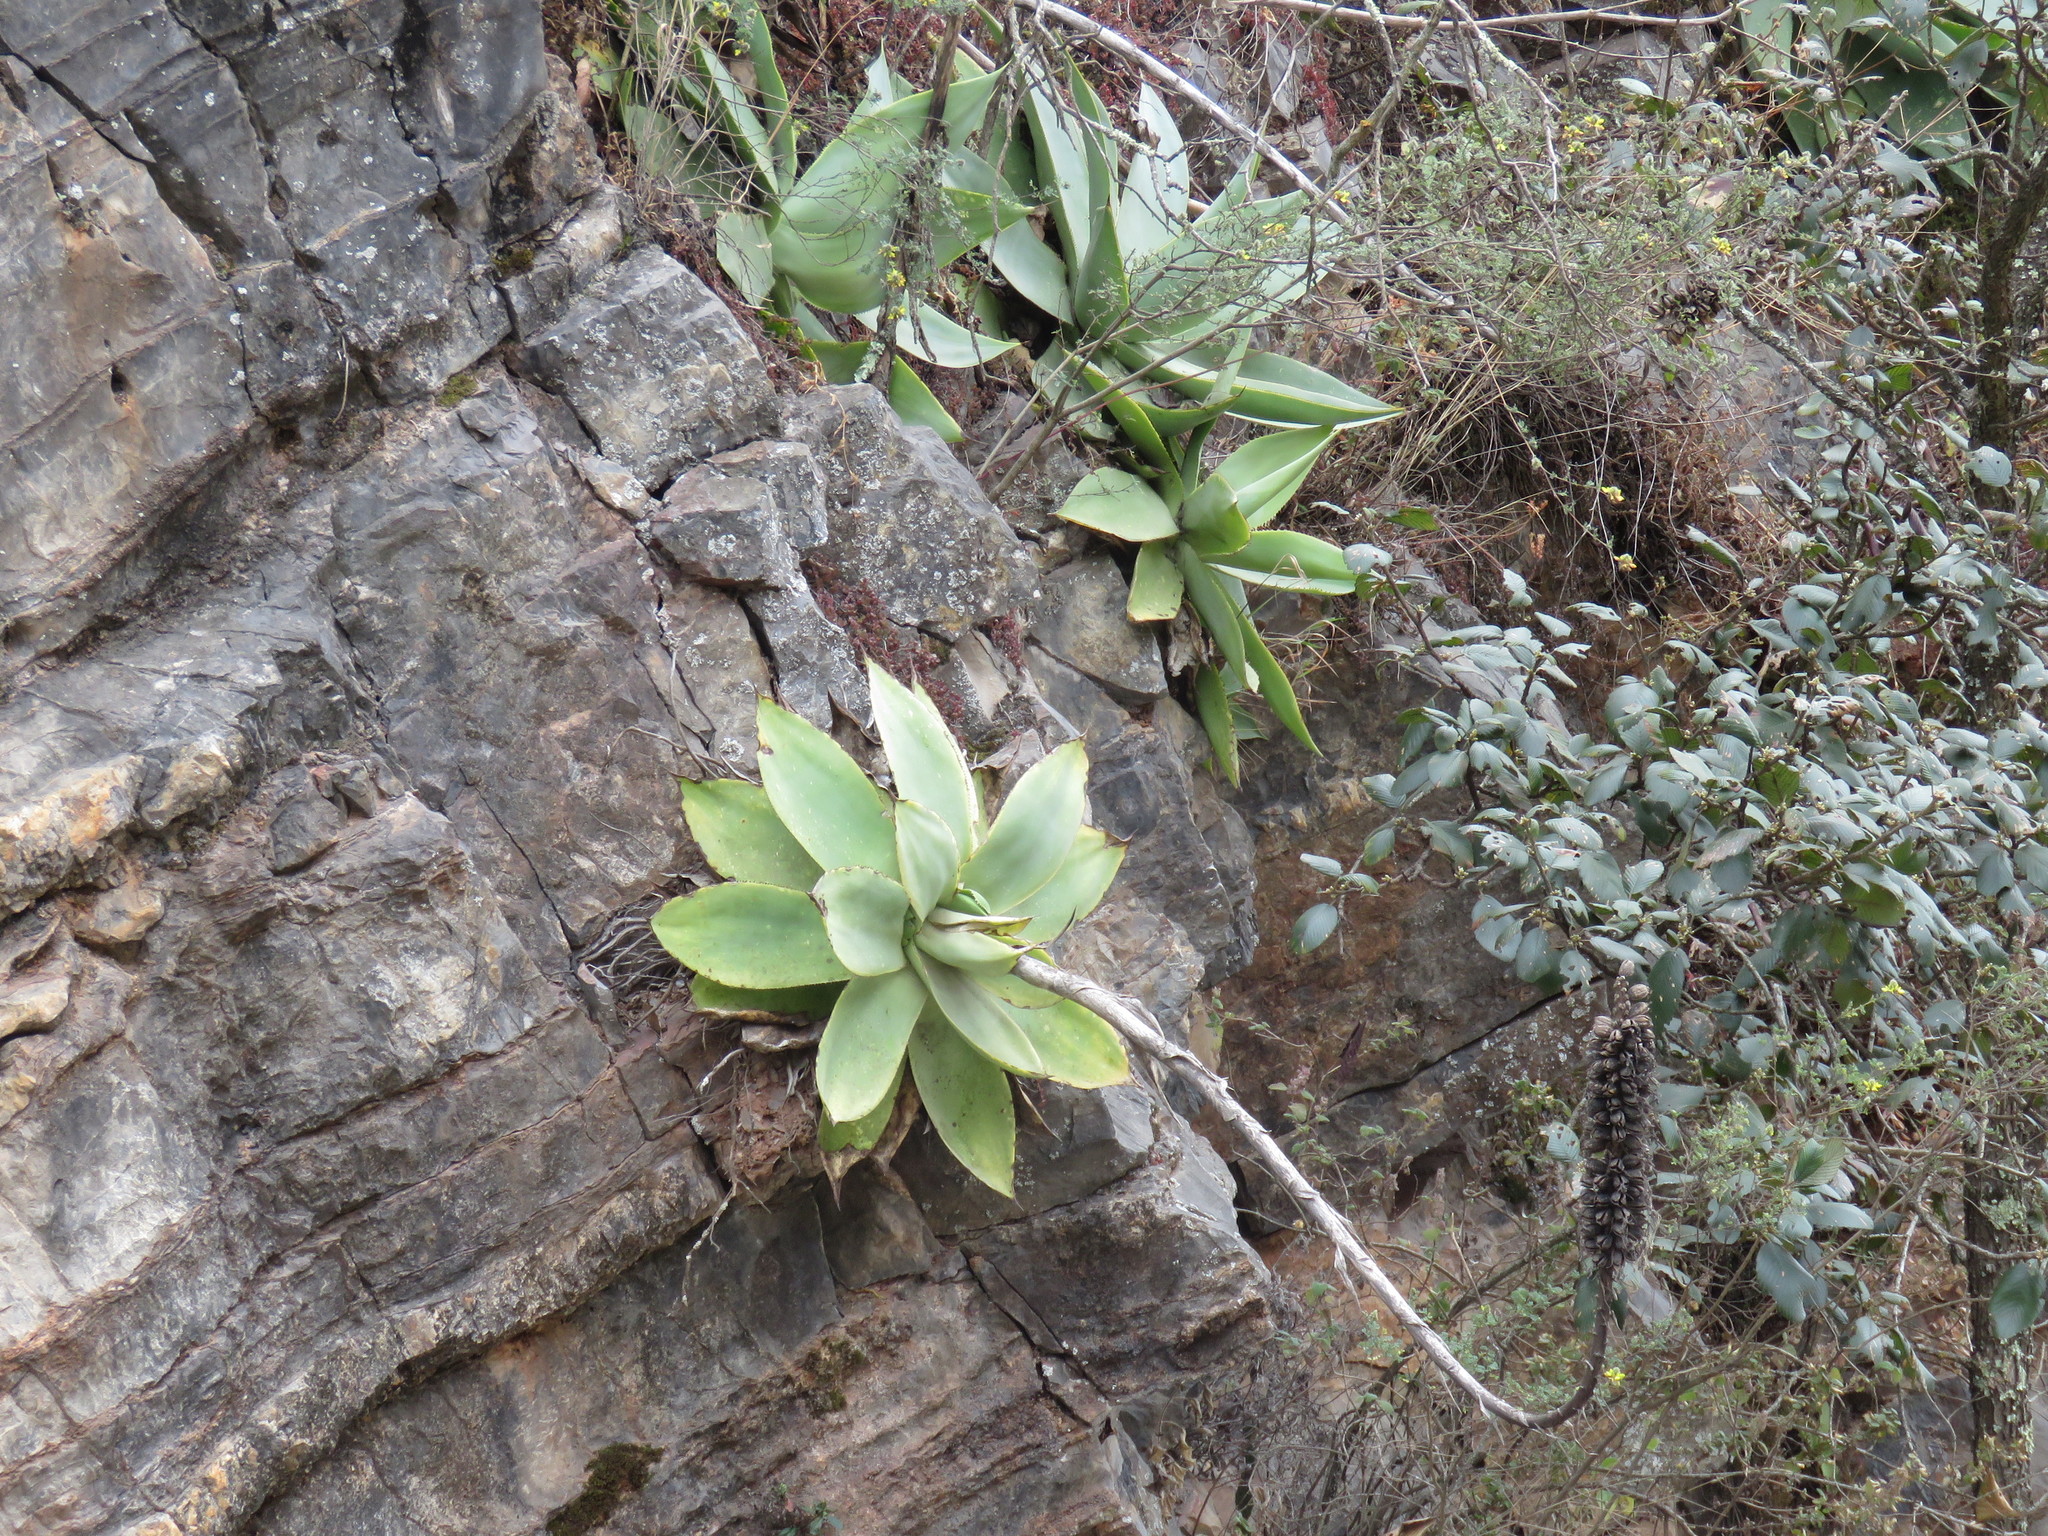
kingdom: Plantae
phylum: Tracheophyta
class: Liliopsida
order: Asparagales
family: Asparagaceae
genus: Agave
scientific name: Agave mitis
